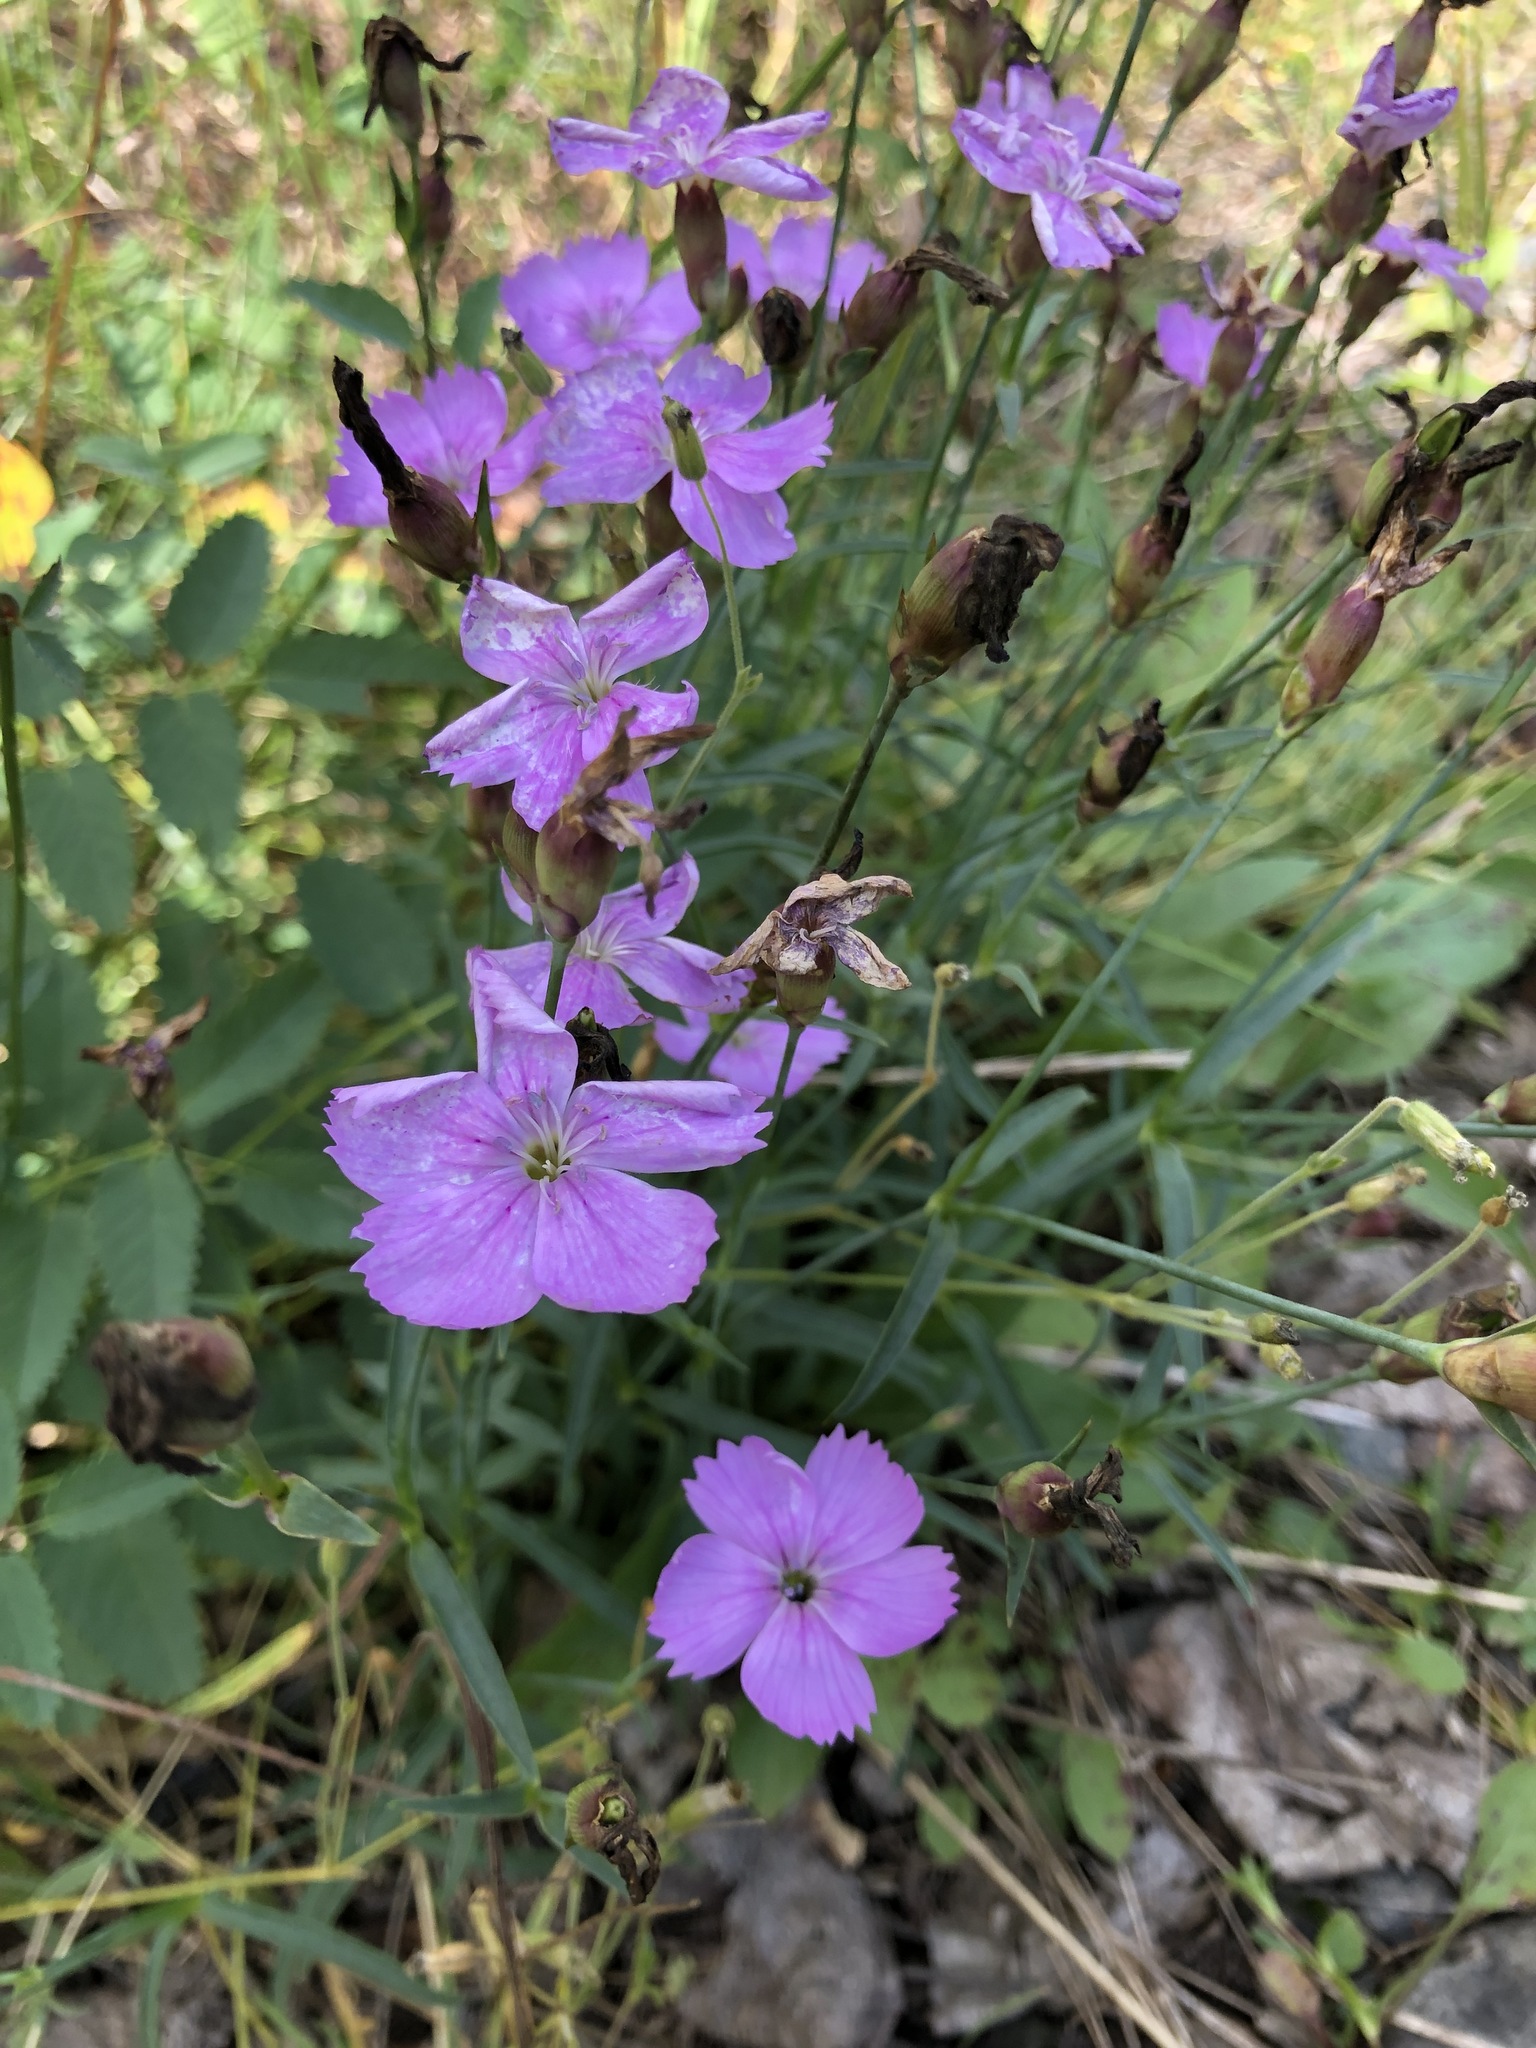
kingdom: Plantae
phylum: Tracheophyta
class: Magnoliopsida
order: Caryophyllales
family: Caryophyllaceae
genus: Dianthus
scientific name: Dianthus repens
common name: Northern pink
